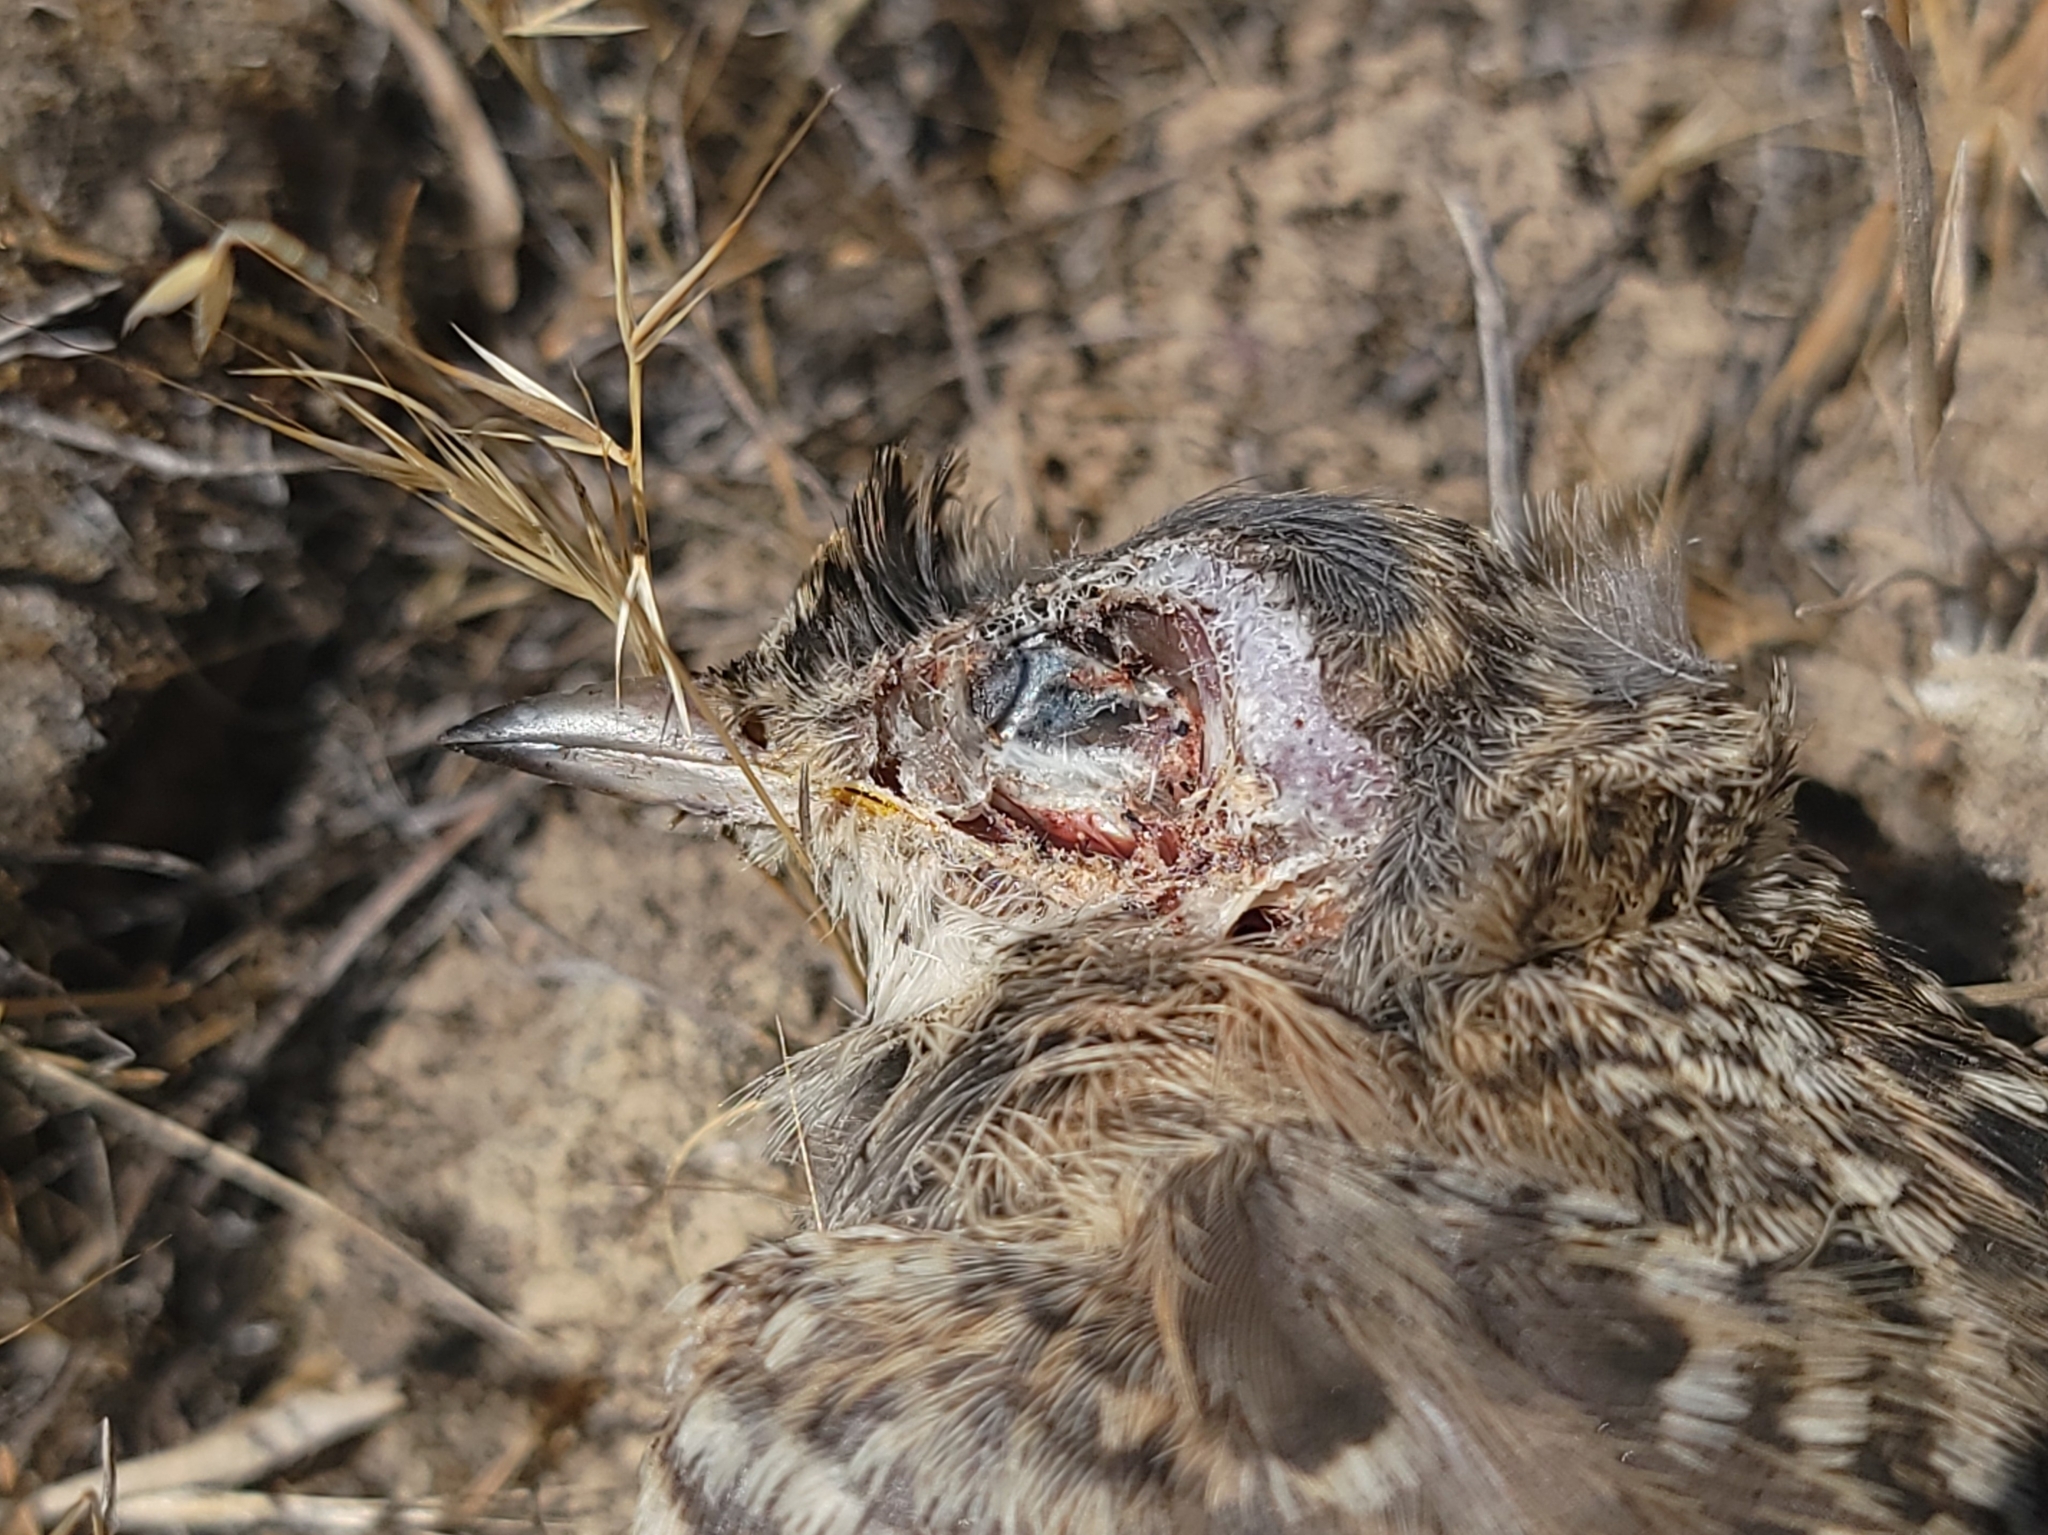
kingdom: Animalia
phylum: Chordata
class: Aves
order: Passeriformes
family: Alaudidae
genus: Eremophila
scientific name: Eremophila alpestris
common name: Horned lark
